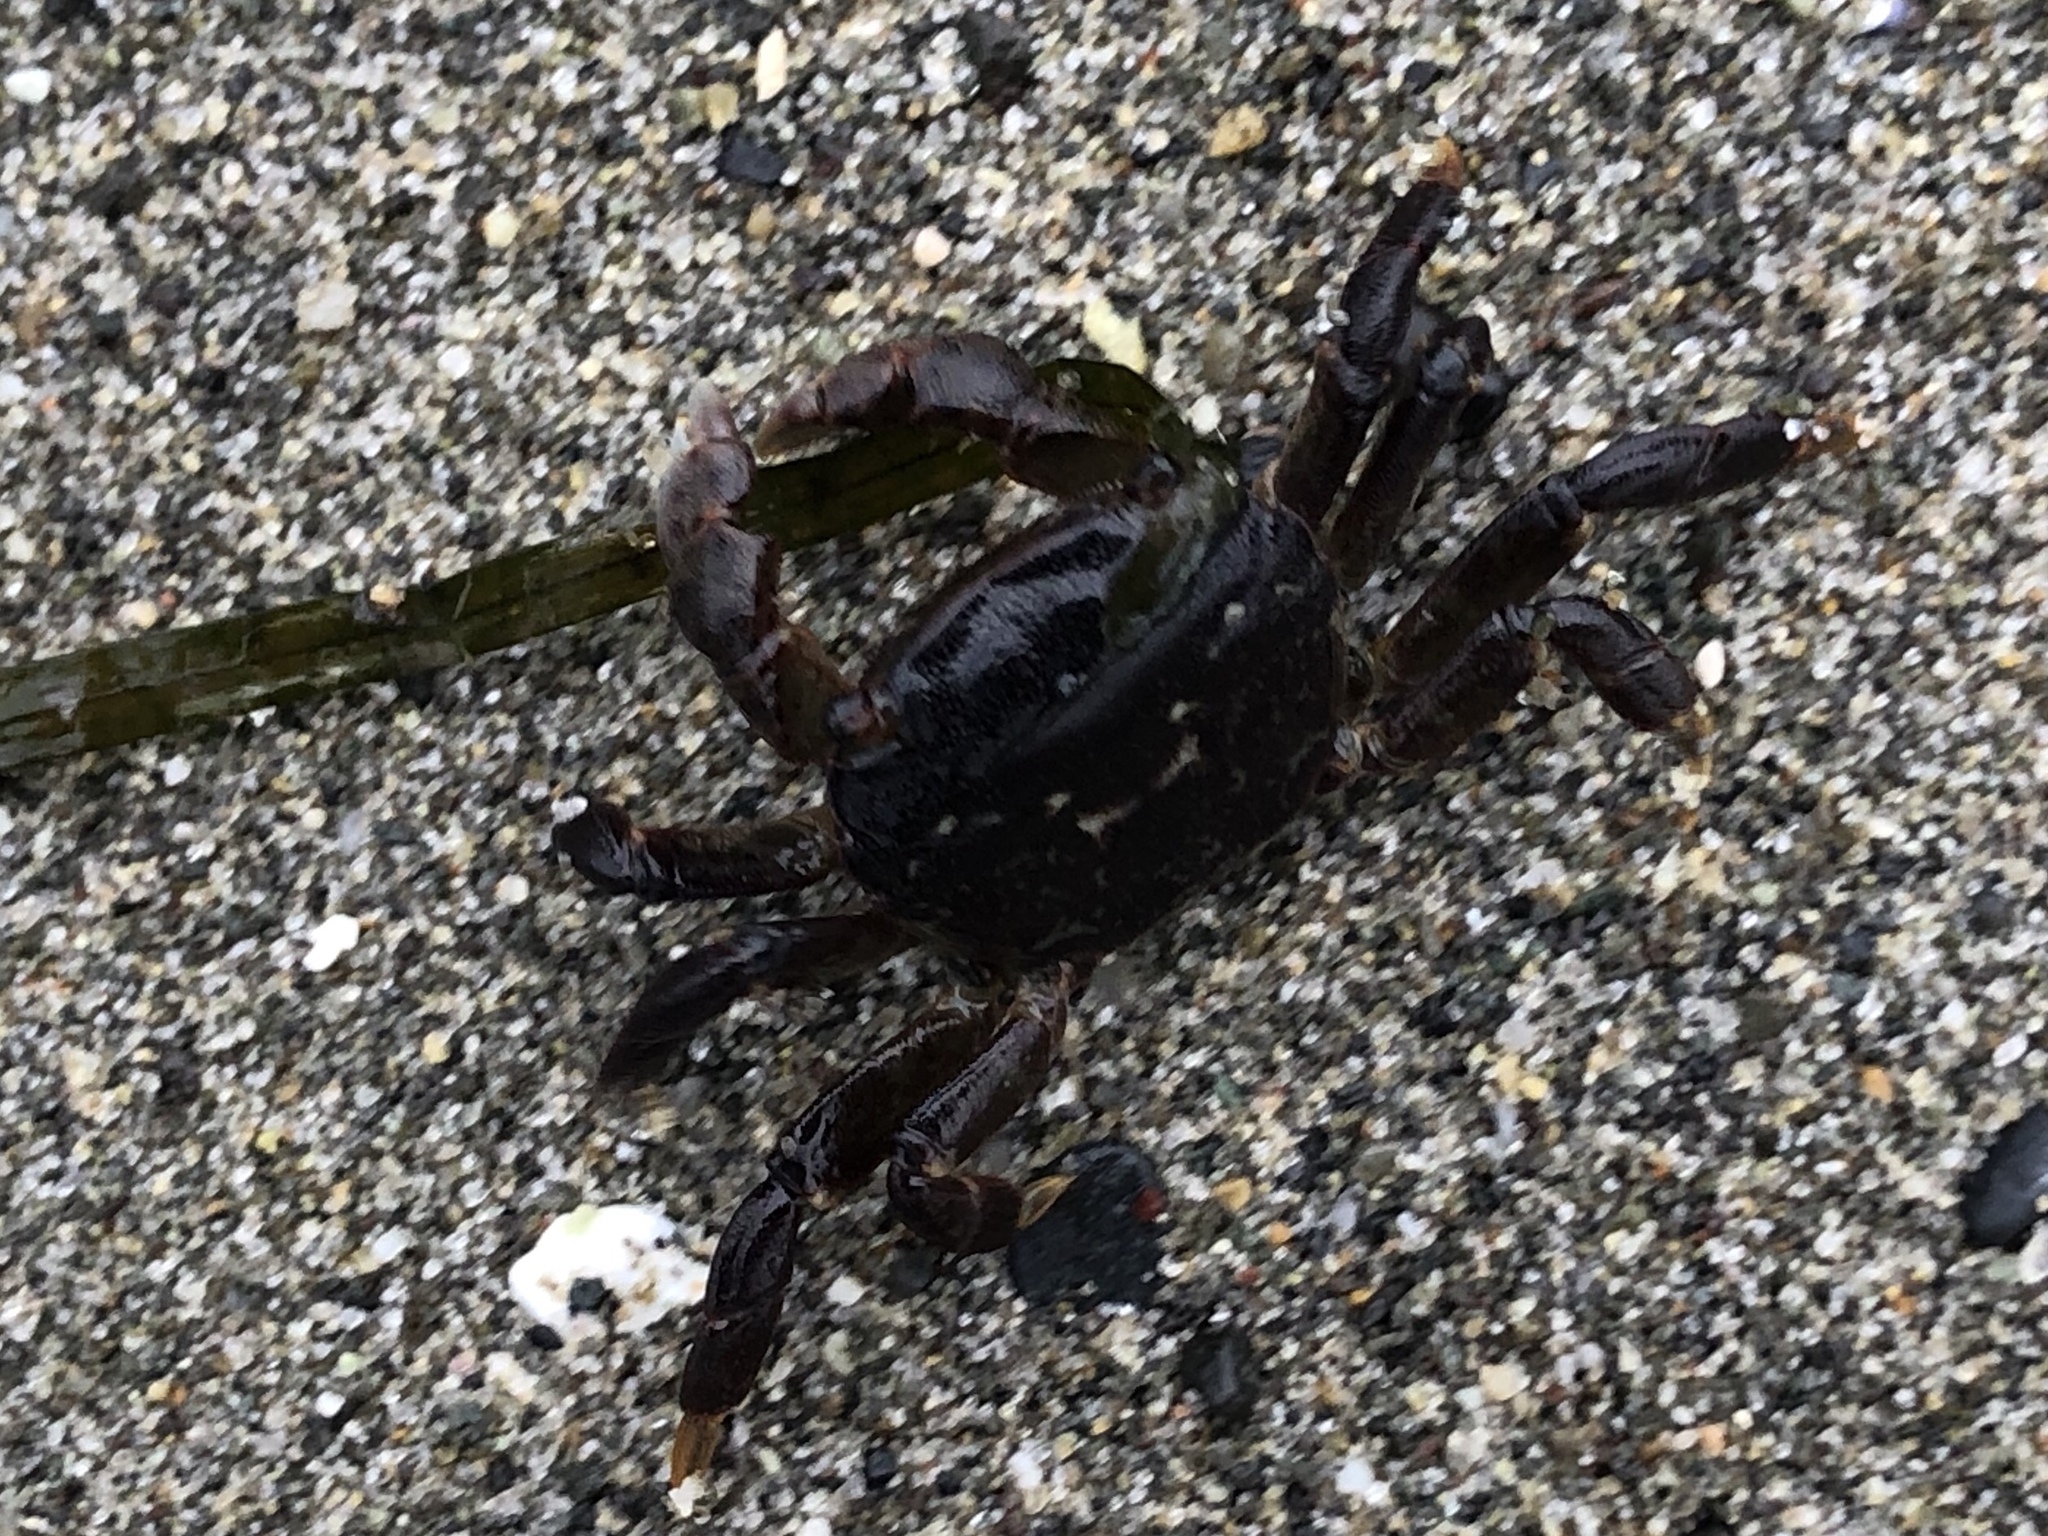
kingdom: Animalia
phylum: Arthropoda
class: Malacostraca
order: Decapoda
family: Varunidae
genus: Hemigrapsus
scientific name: Hemigrapsus nudus
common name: Purple shore crab
